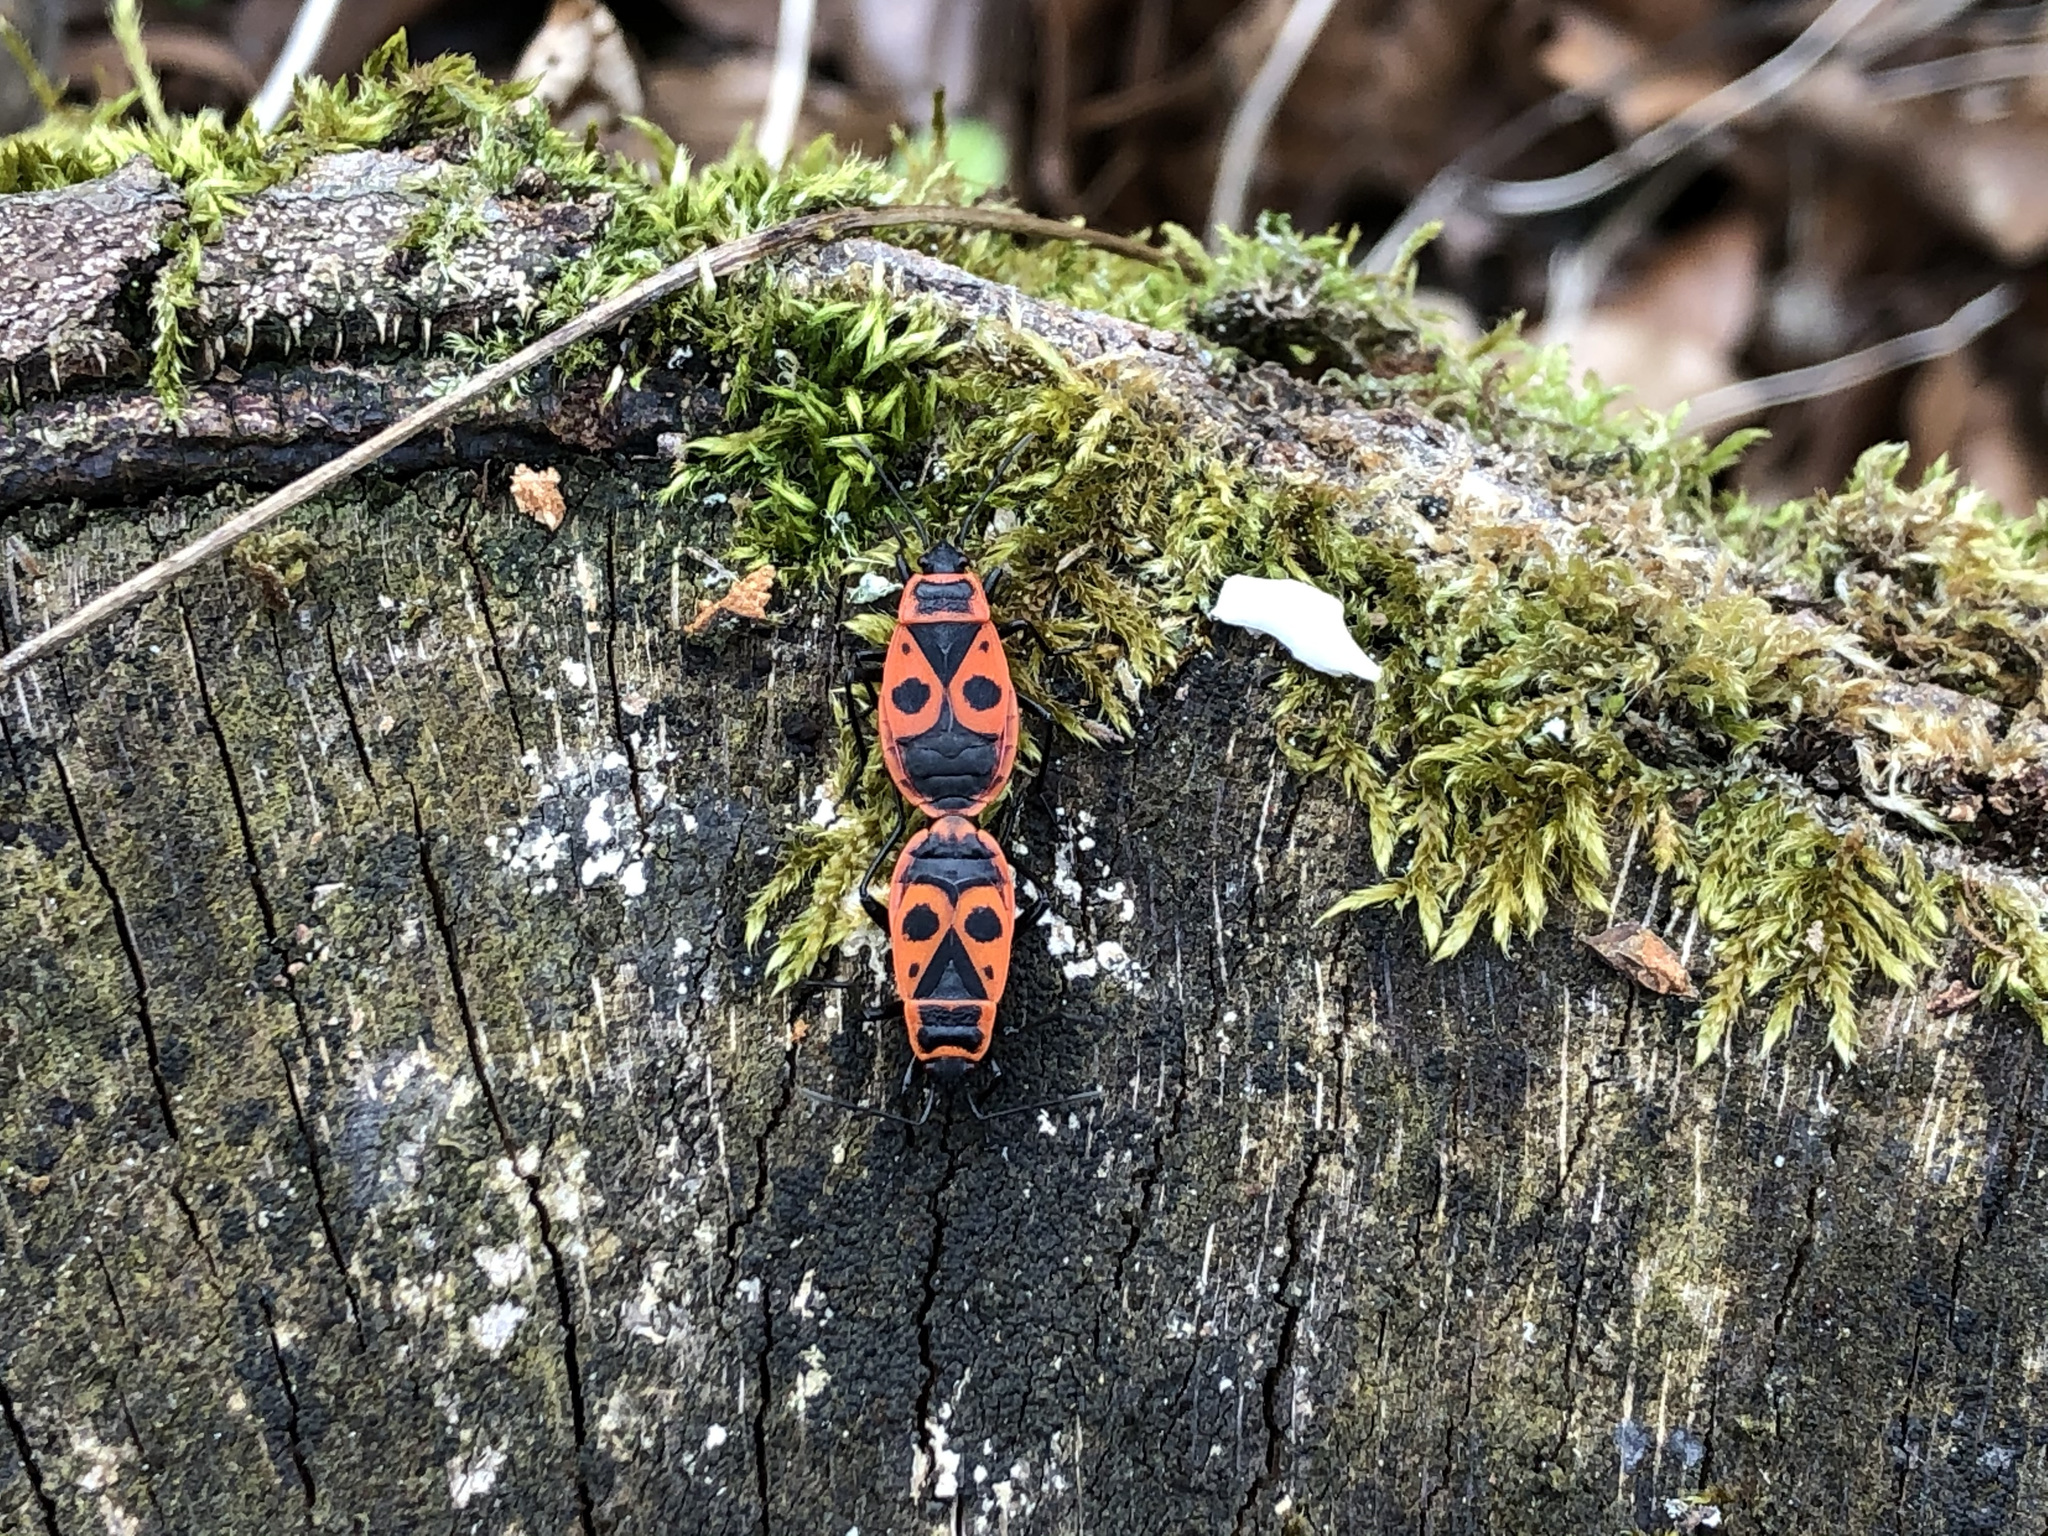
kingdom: Animalia
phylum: Arthropoda
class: Insecta
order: Hemiptera
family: Pyrrhocoridae
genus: Pyrrhocoris
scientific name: Pyrrhocoris apterus
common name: Firebug
